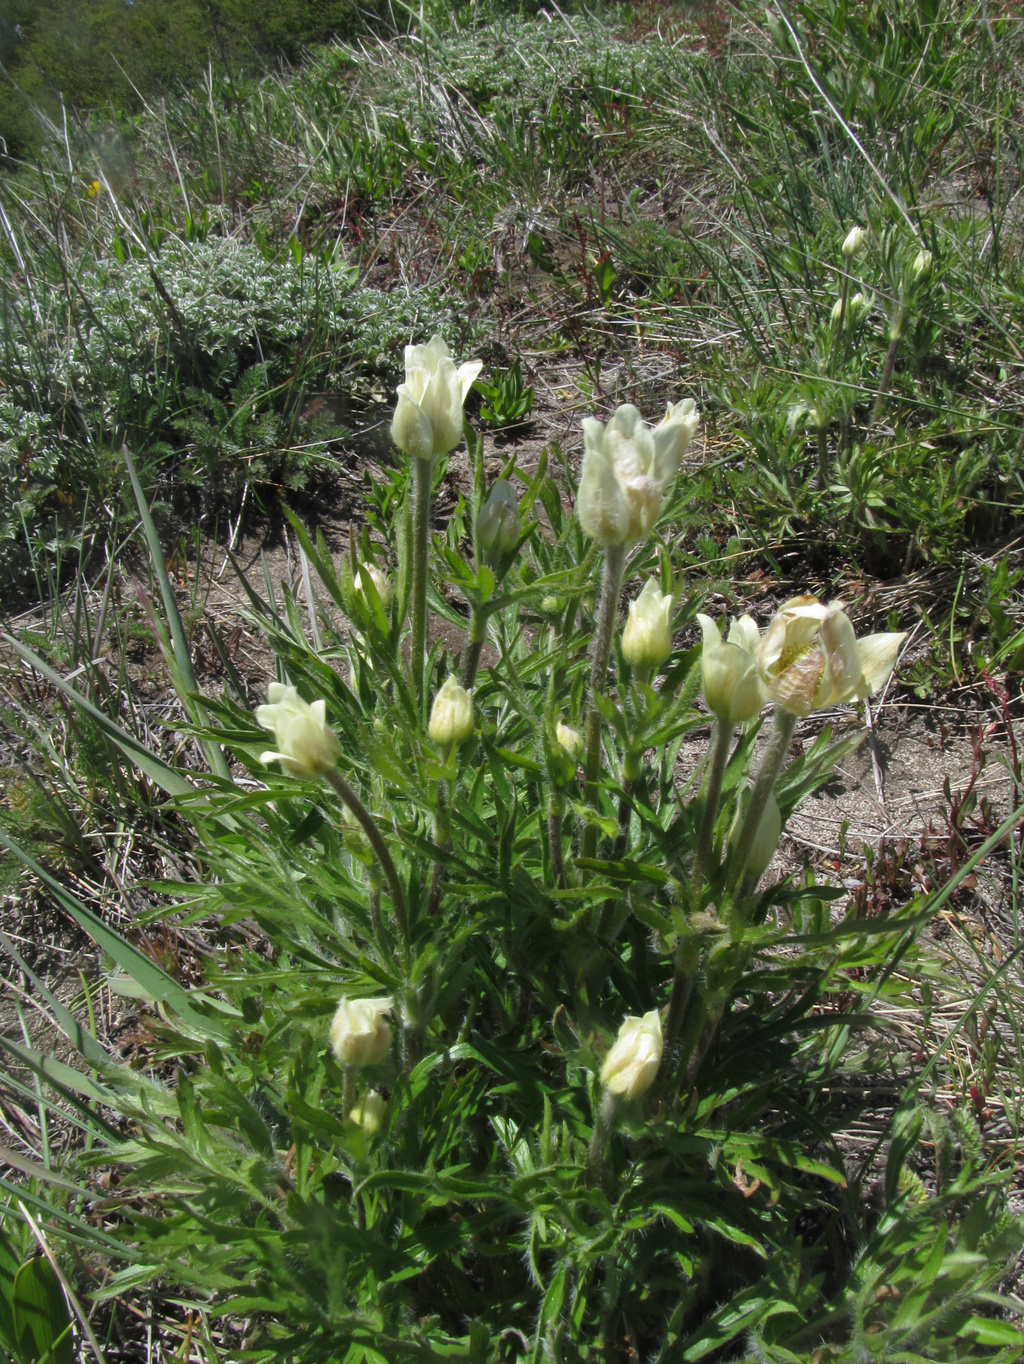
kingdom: Plantae
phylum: Tracheophyta
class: Magnoliopsida
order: Ranunculales
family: Ranunculaceae
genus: Anemone
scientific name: Anemone multifida
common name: Bird's-foot anemone
